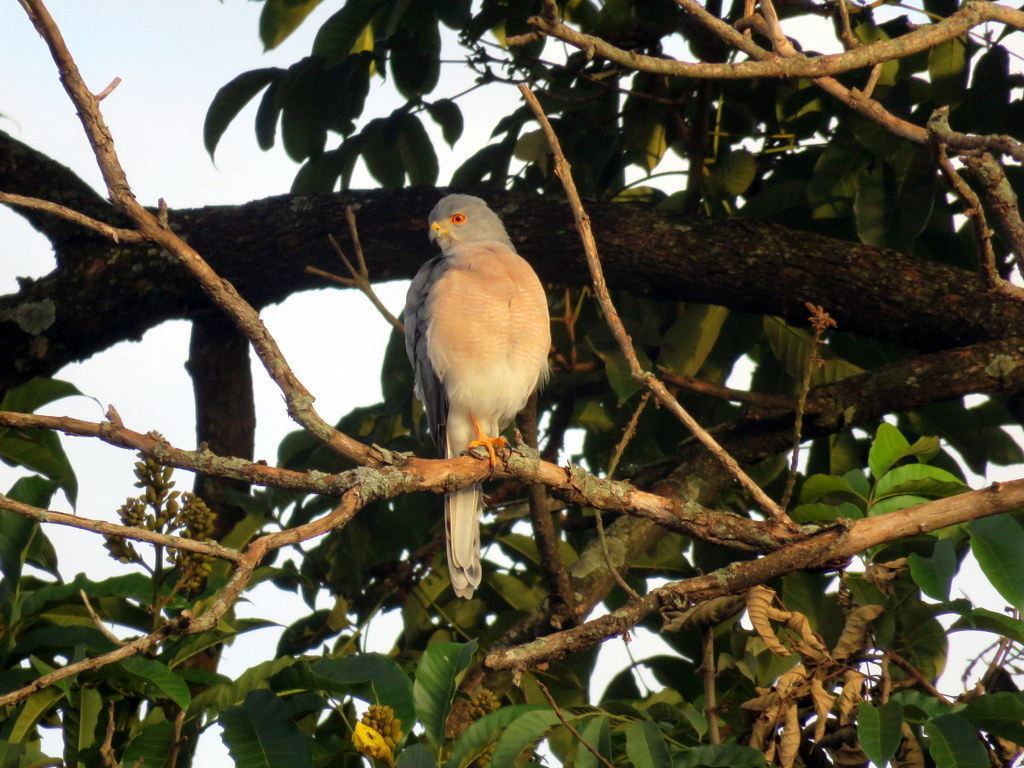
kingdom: Animalia
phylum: Chordata
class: Aves
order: Accipitriformes
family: Accipitridae
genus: Accipiter
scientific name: Accipiter badius
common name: Shikra
